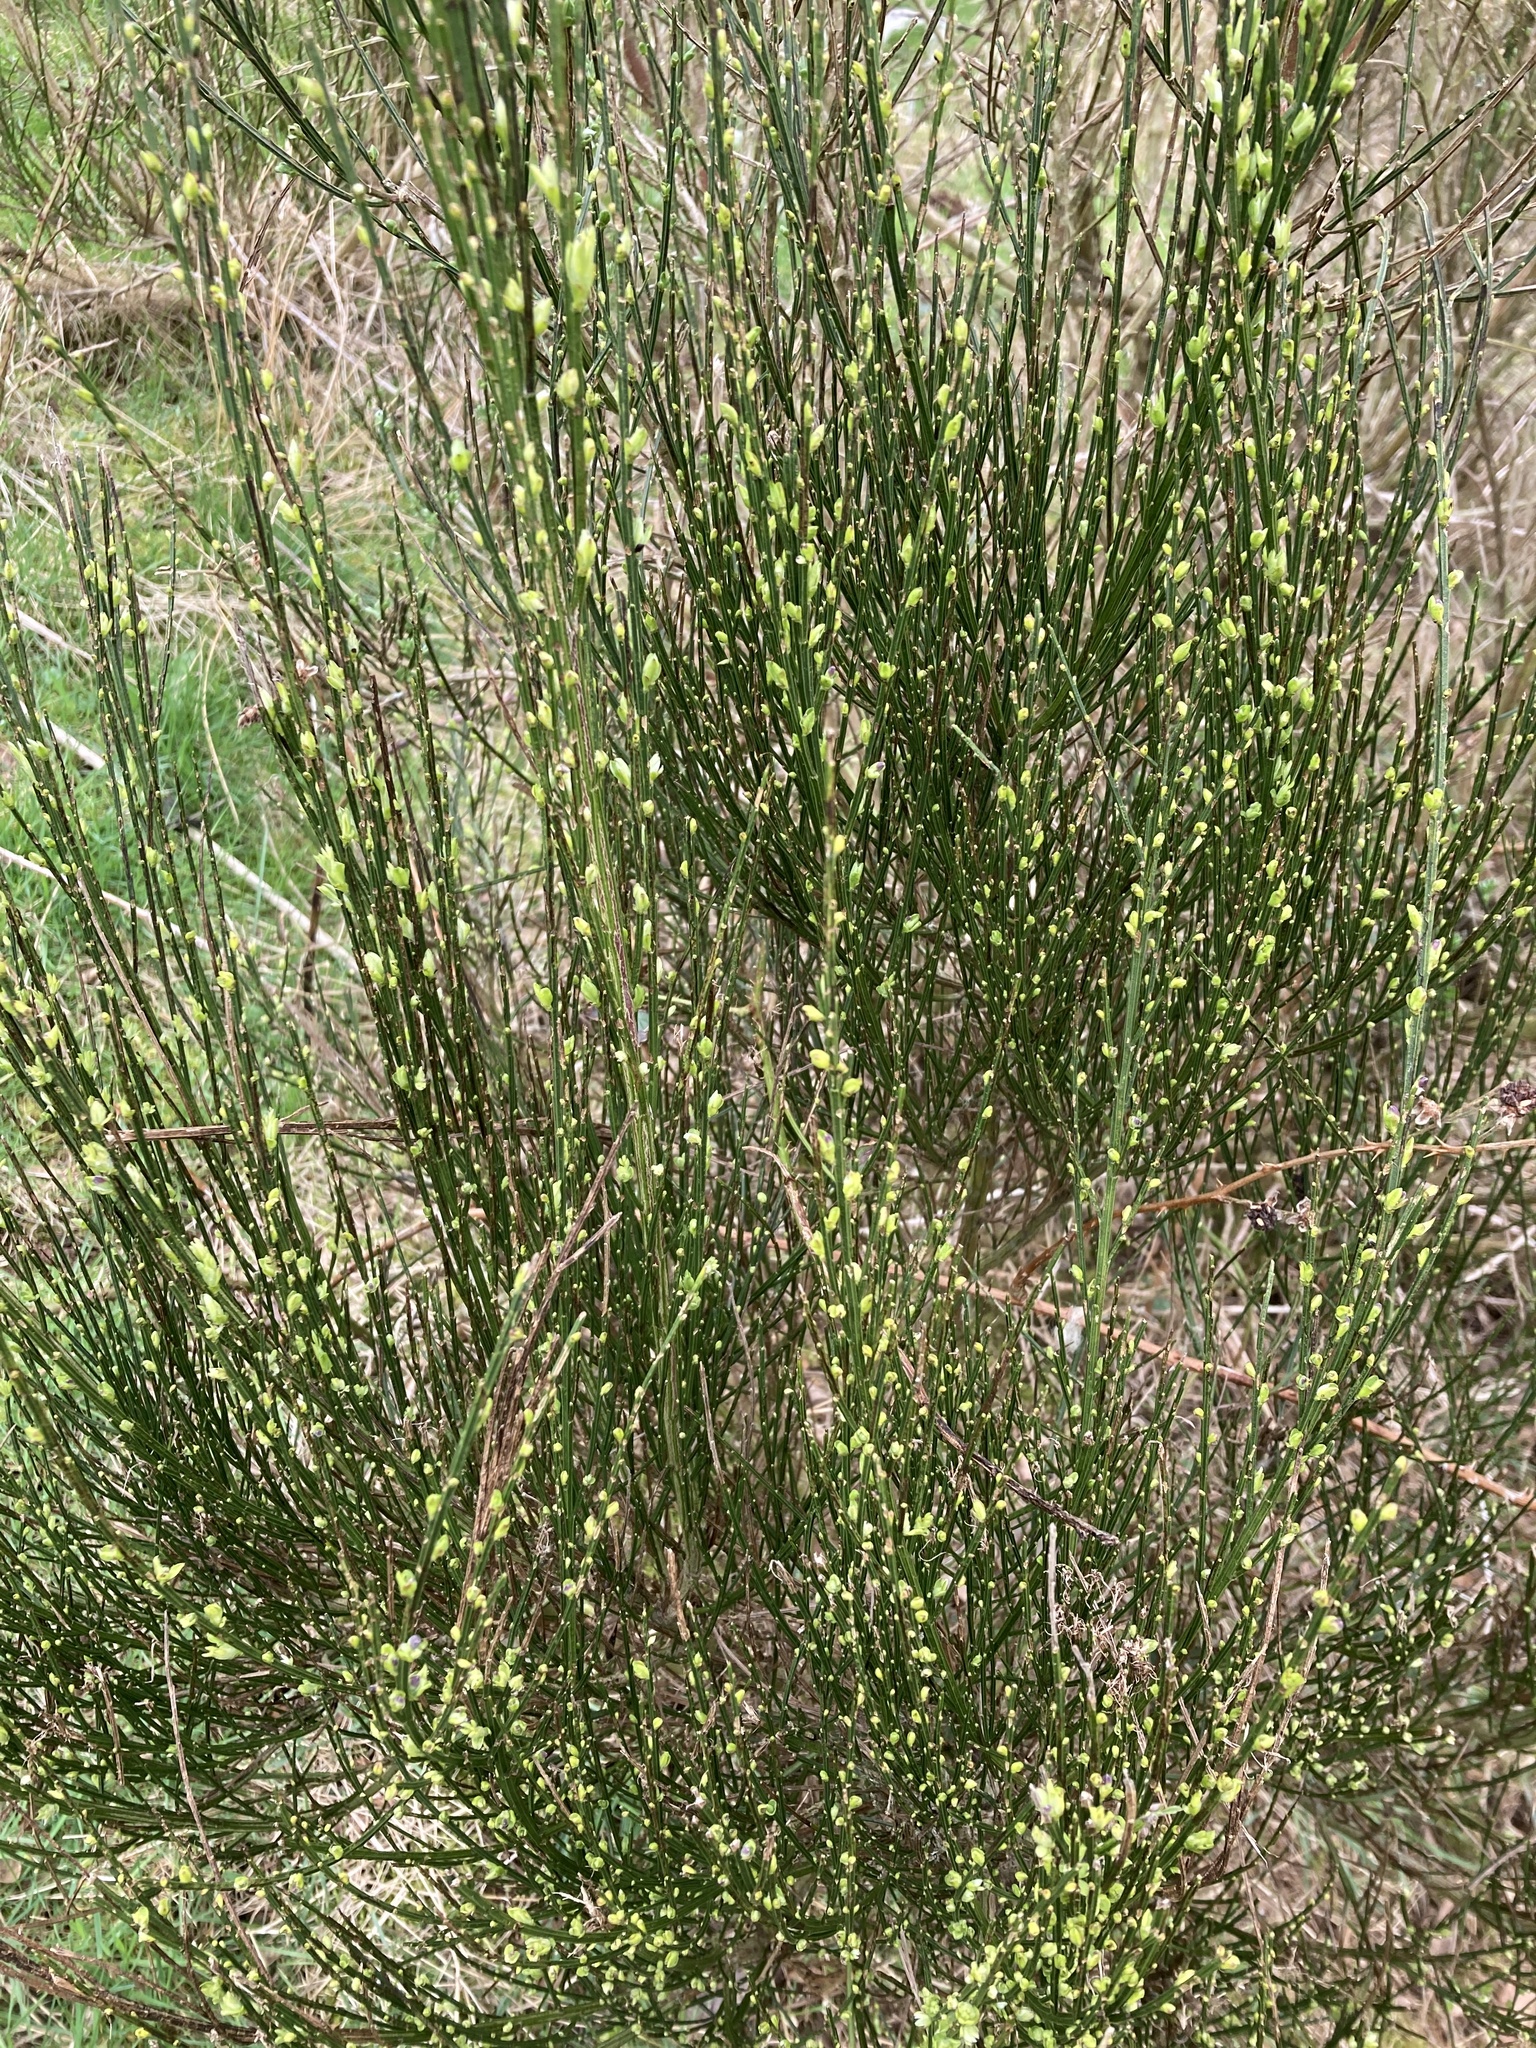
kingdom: Plantae
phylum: Tracheophyta
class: Magnoliopsida
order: Fabales
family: Fabaceae
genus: Cytisus
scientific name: Cytisus scoparius
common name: Scotch broom
